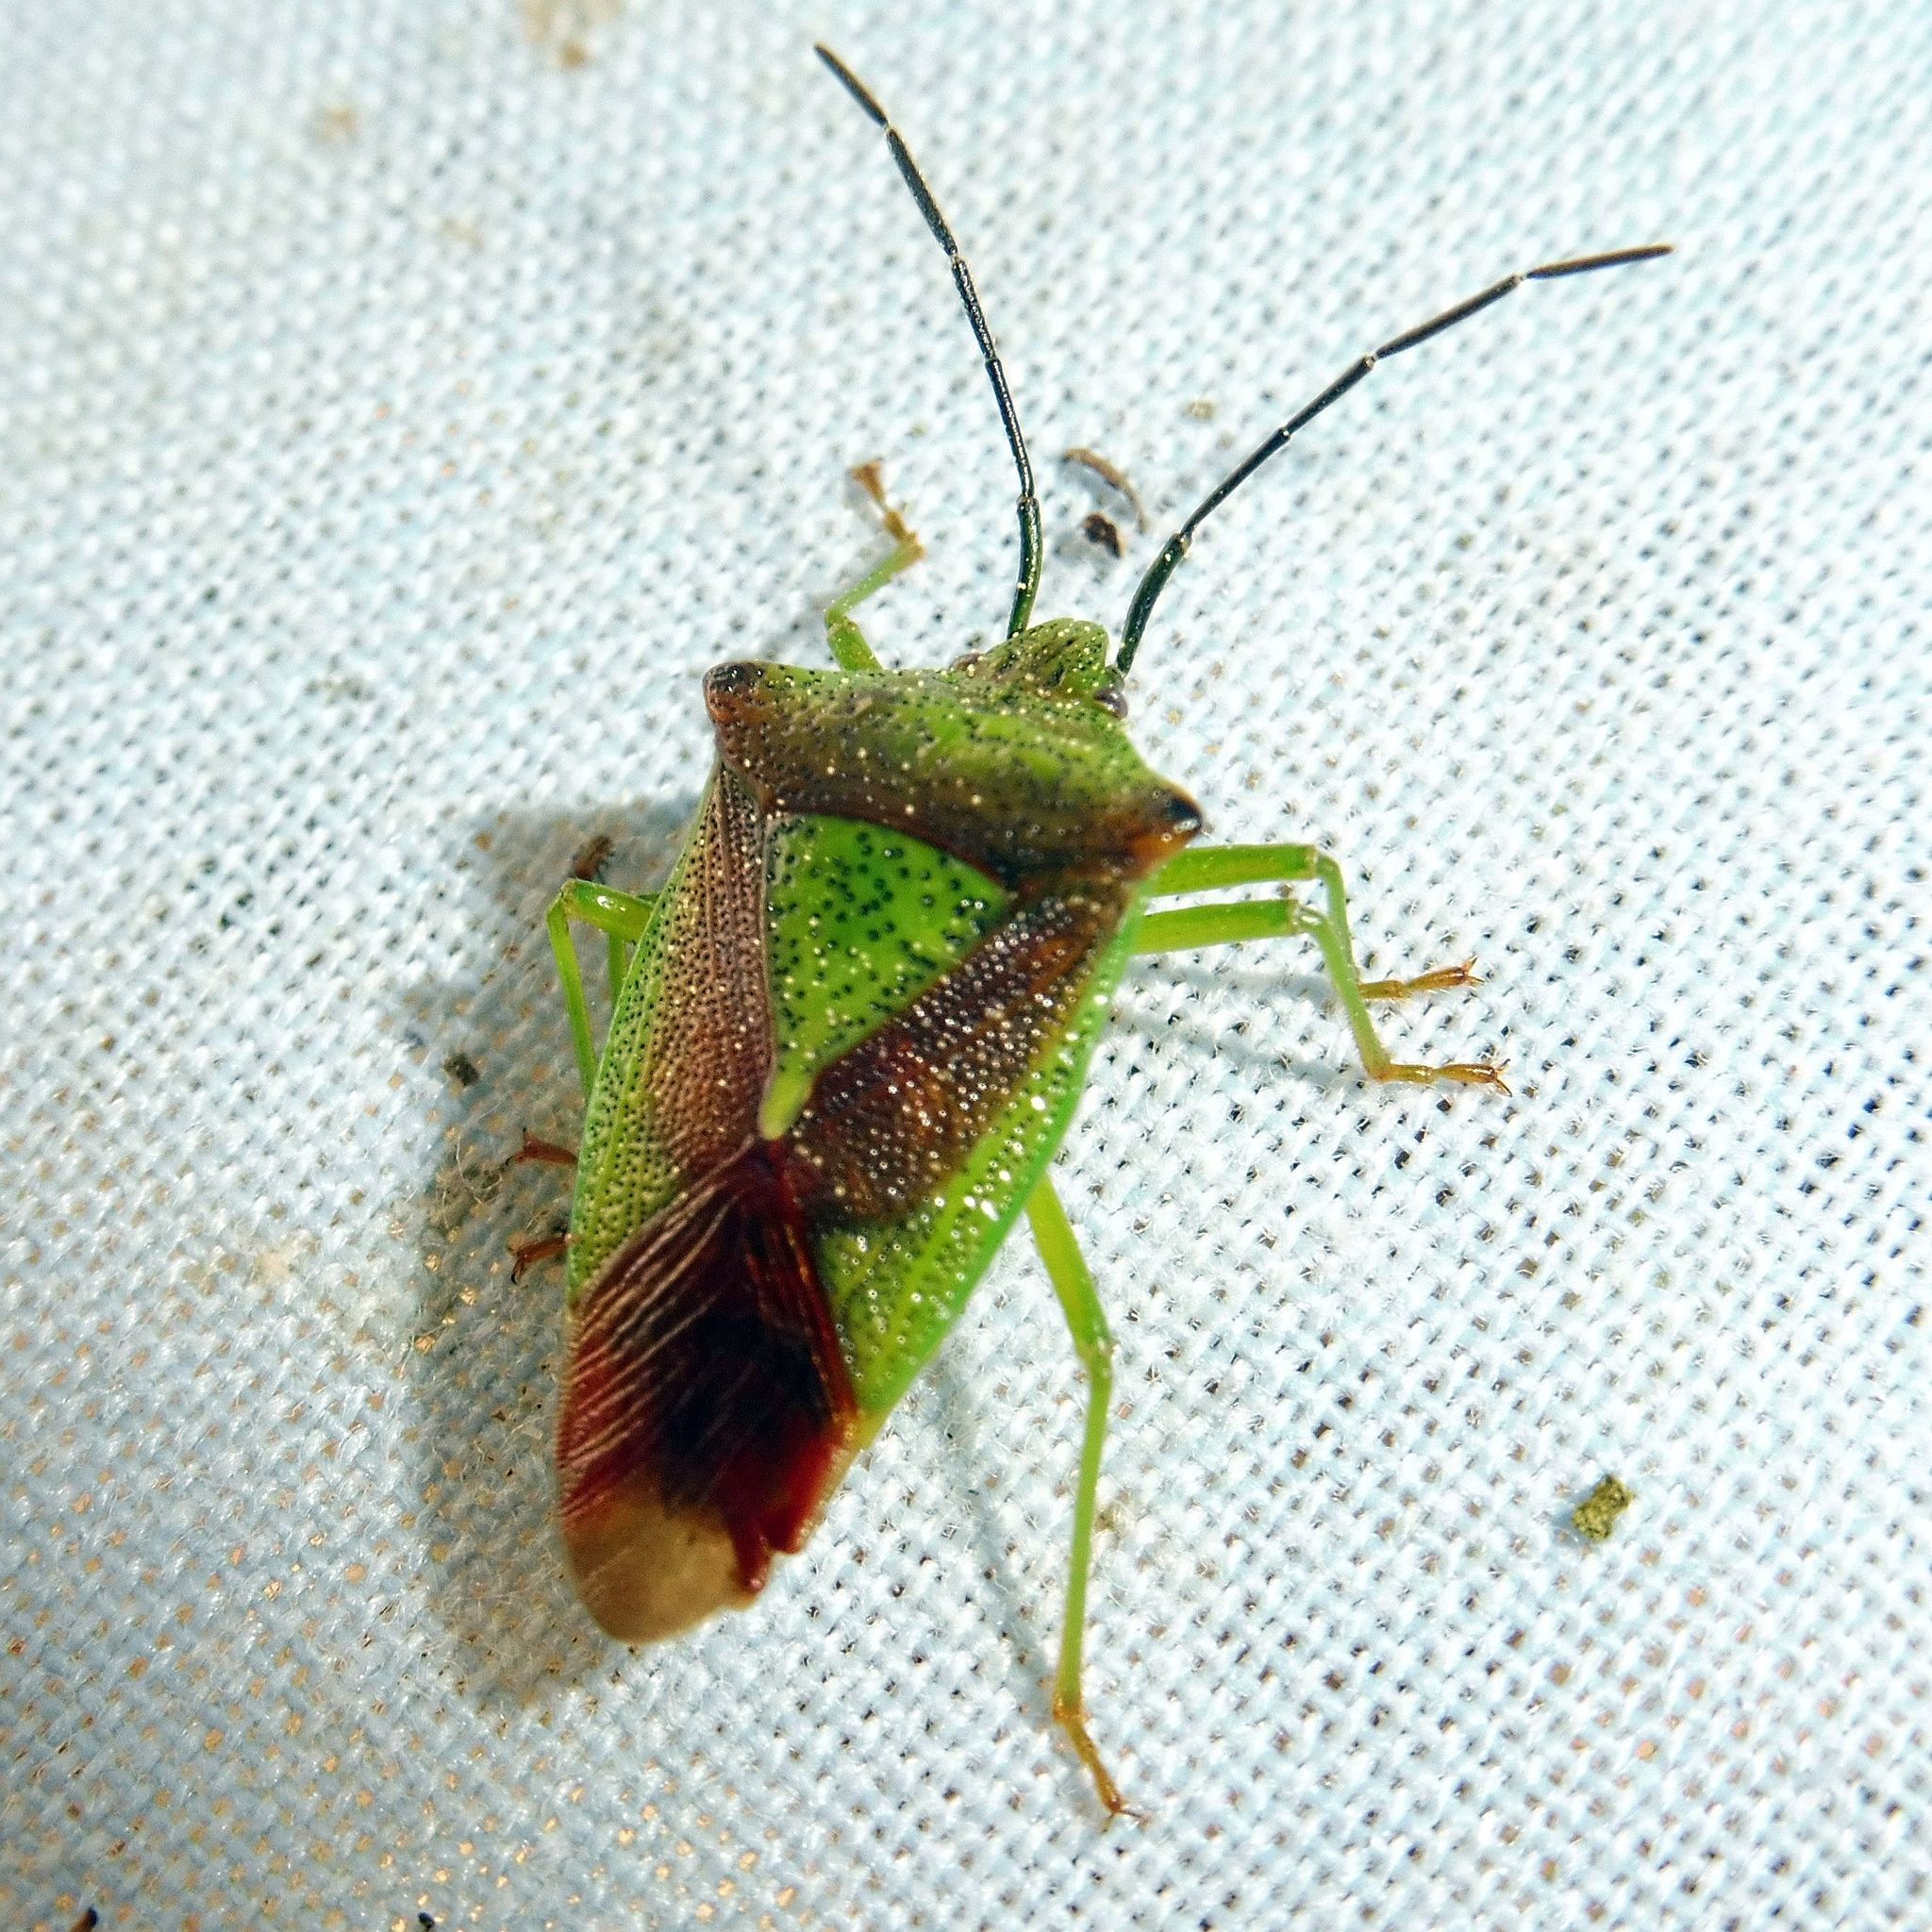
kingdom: Animalia
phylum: Arthropoda
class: Insecta
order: Hemiptera
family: Acanthosomatidae
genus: Acanthosoma
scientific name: Acanthosoma haemorrhoidale
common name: Hawthorn shieldbug
